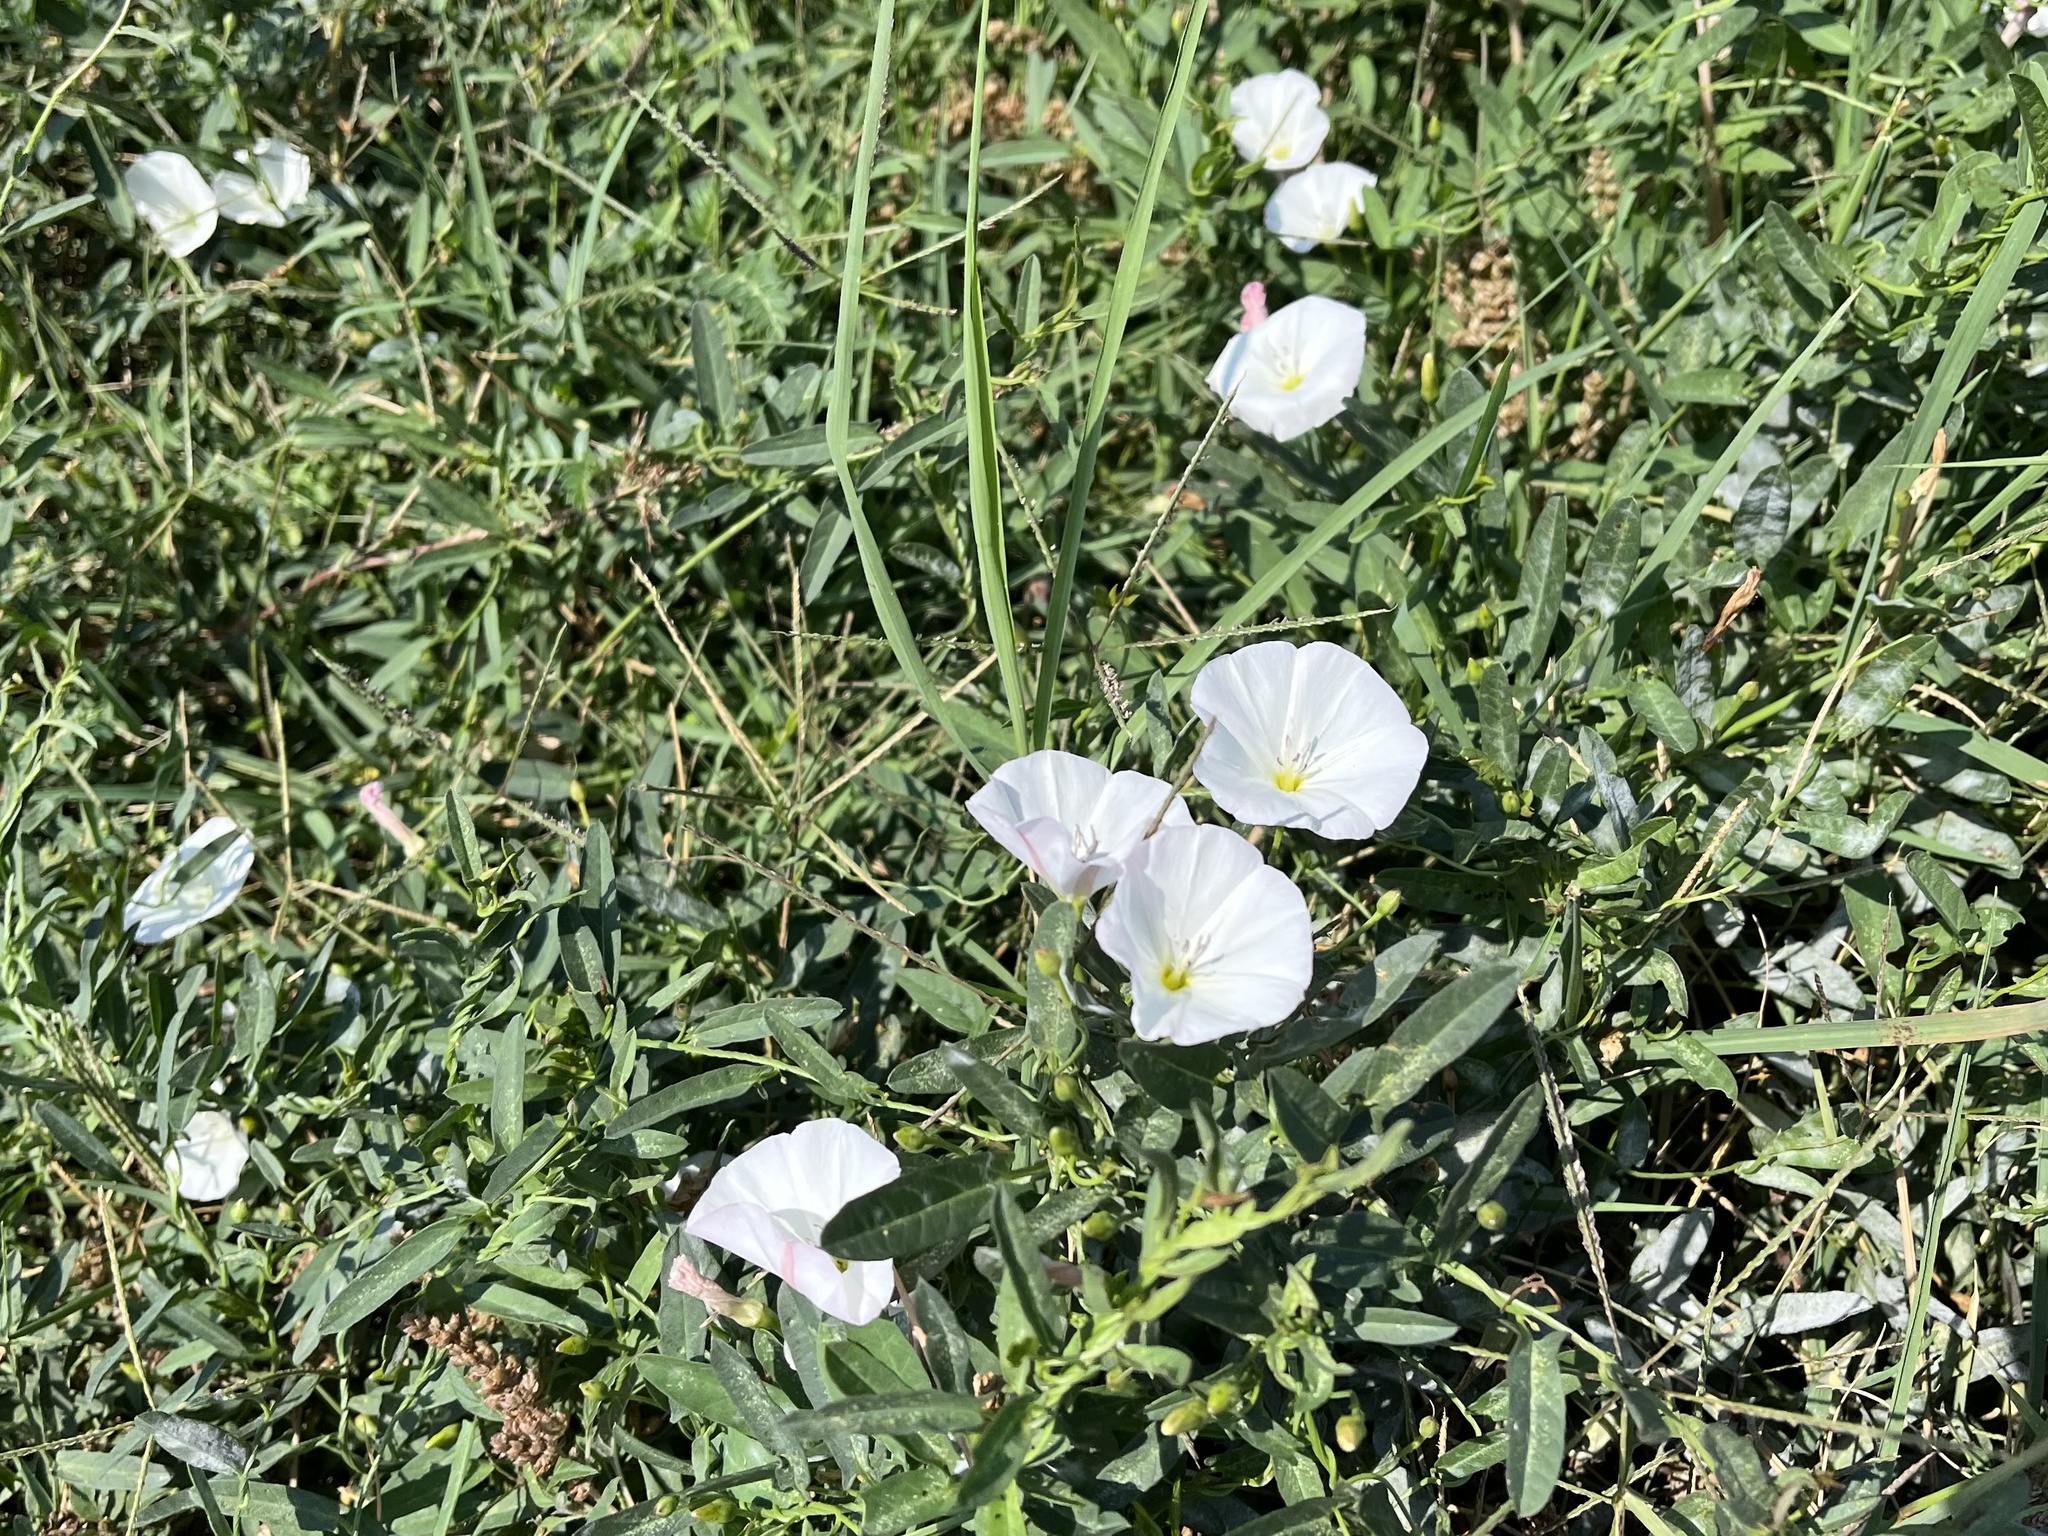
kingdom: Plantae
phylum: Tracheophyta
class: Magnoliopsida
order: Solanales
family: Convolvulaceae
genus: Convolvulus
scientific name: Convolvulus arvensis
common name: Field bindweed
